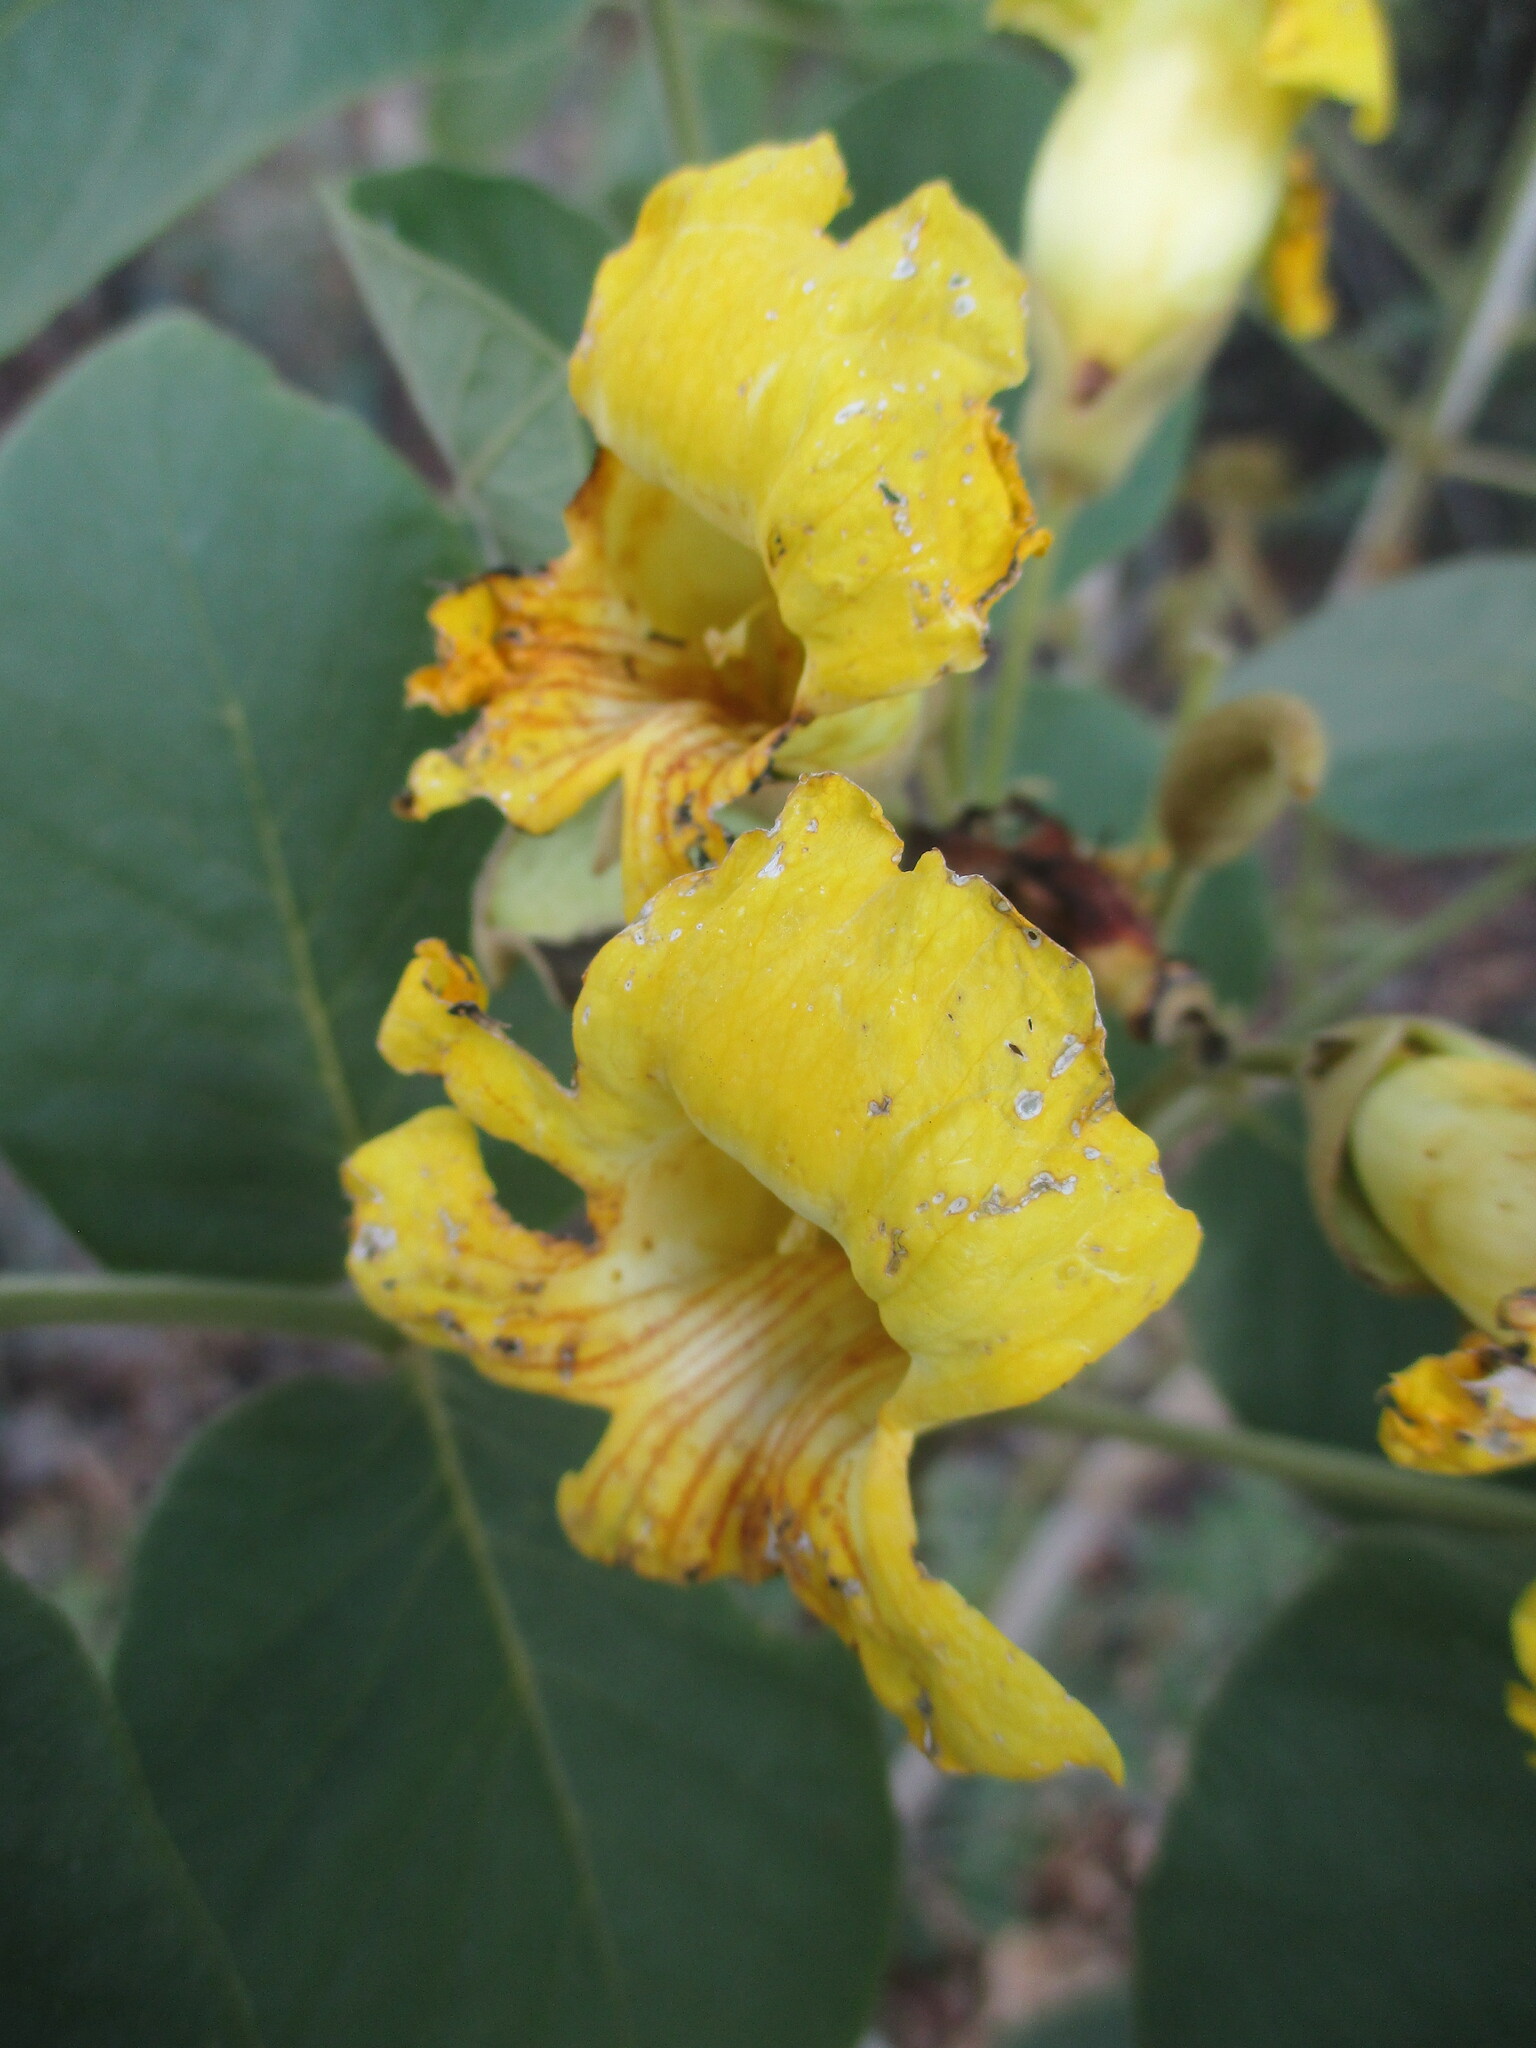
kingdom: Plantae
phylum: Tracheophyta
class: Magnoliopsida
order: Lamiales
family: Bignoniaceae
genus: Markhamia
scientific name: Markhamia obtusifolia
